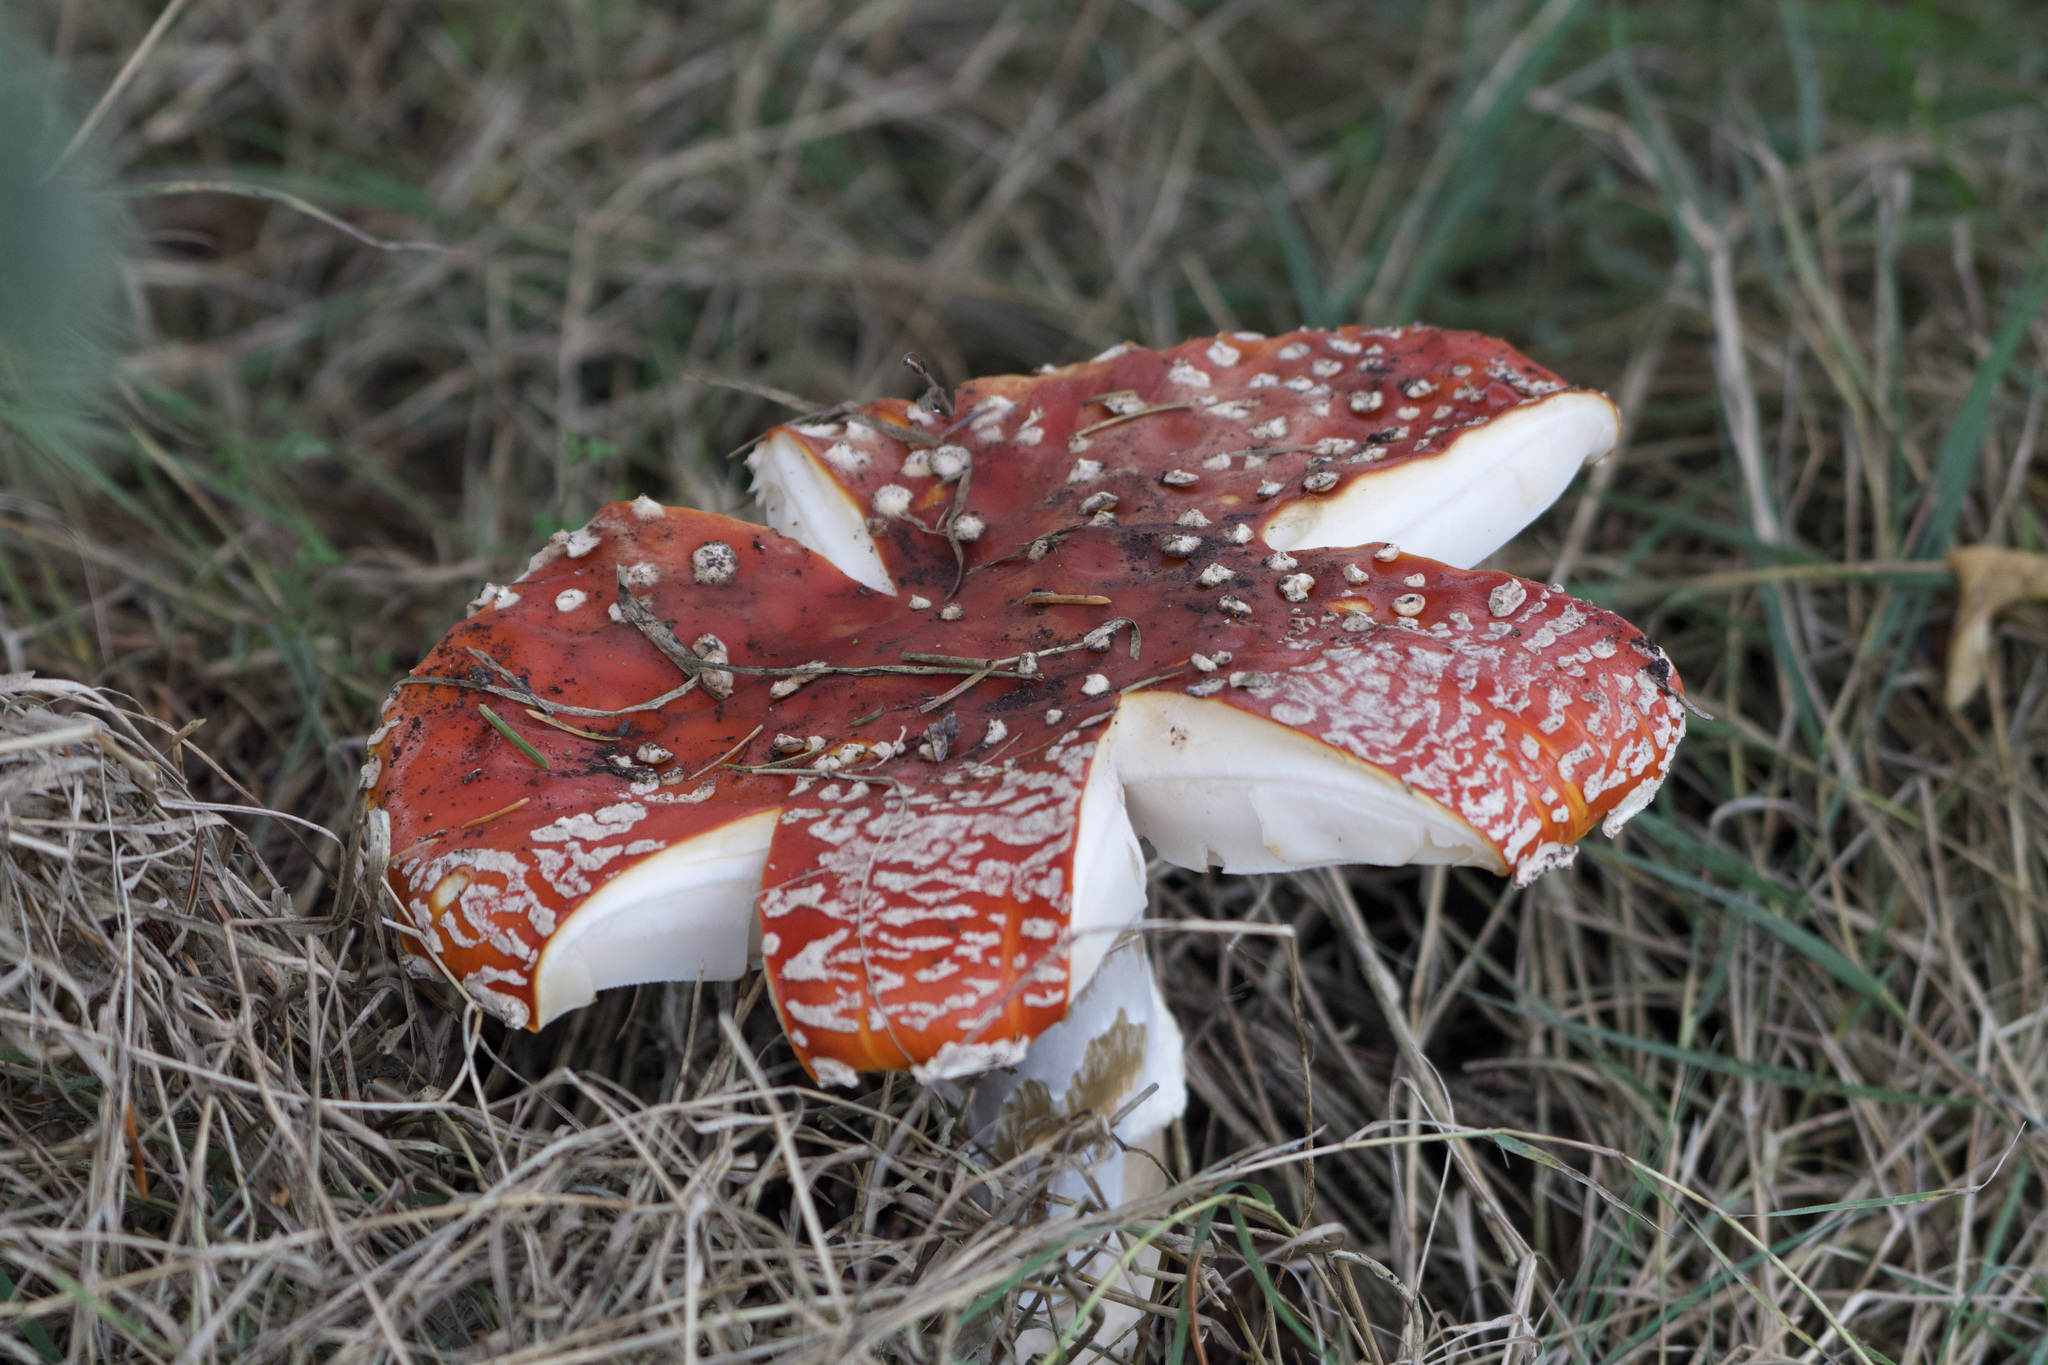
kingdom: Fungi
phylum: Basidiomycota
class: Agaricomycetes
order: Agaricales
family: Amanitaceae
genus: Amanita
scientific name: Amanita muscaria
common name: Fly agaric
